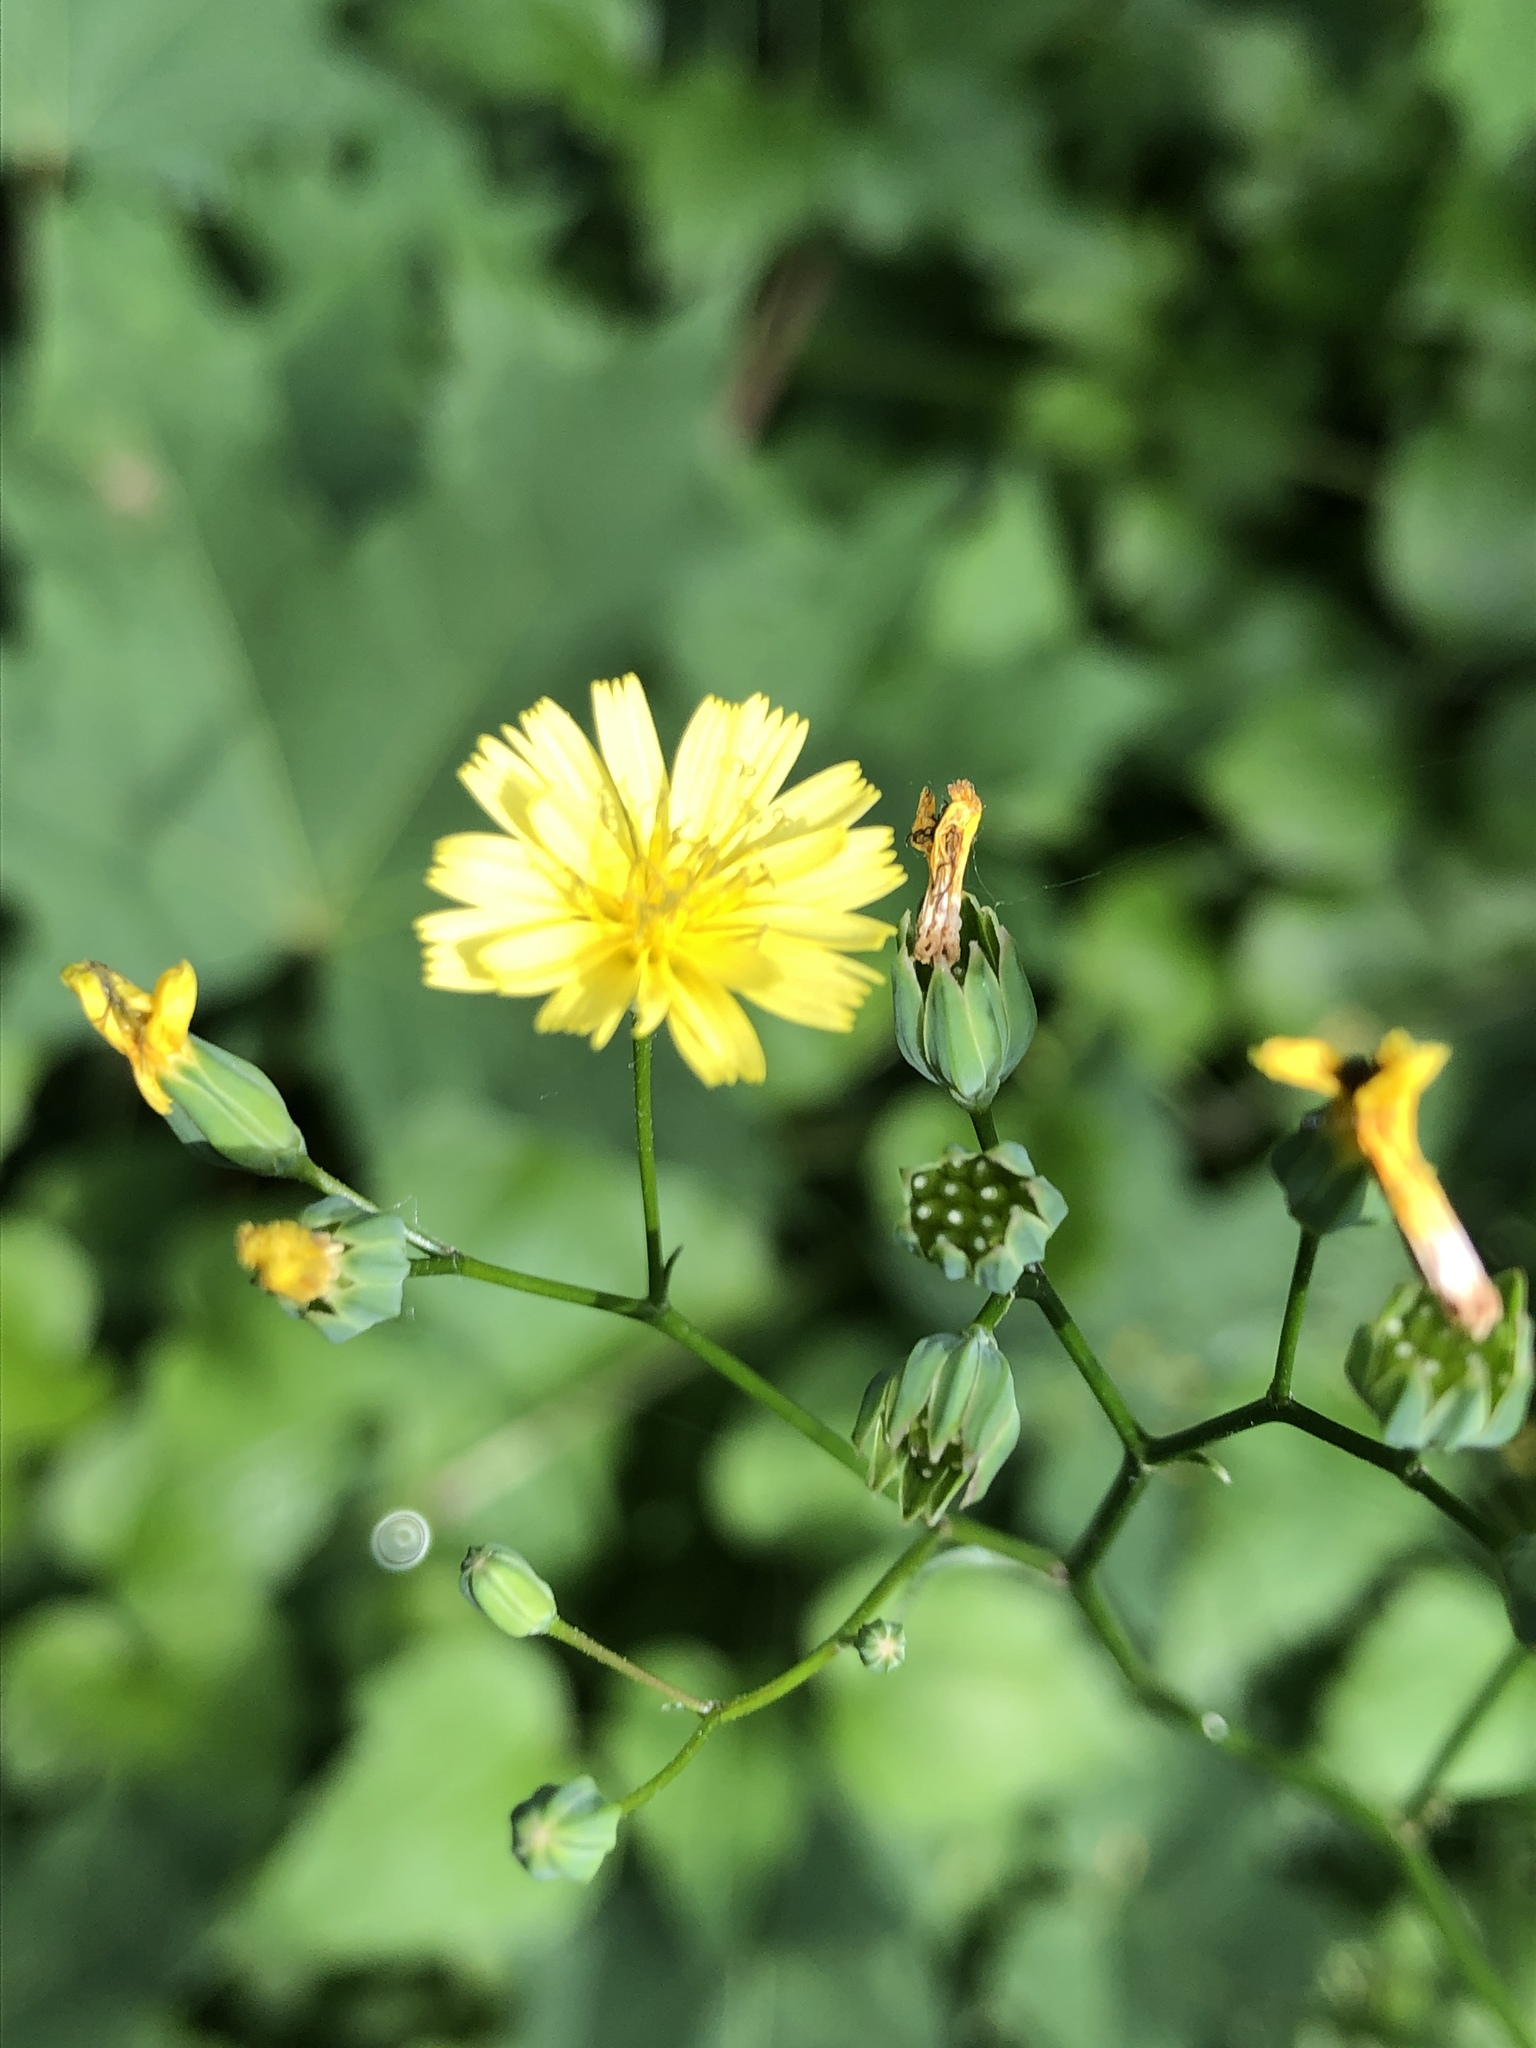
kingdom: Plantae
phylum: Tracheophyta
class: Magnoliopsida
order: Asterales
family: Asteraceae
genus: Lapsana
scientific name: Lapsana communis
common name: Nipplewort
